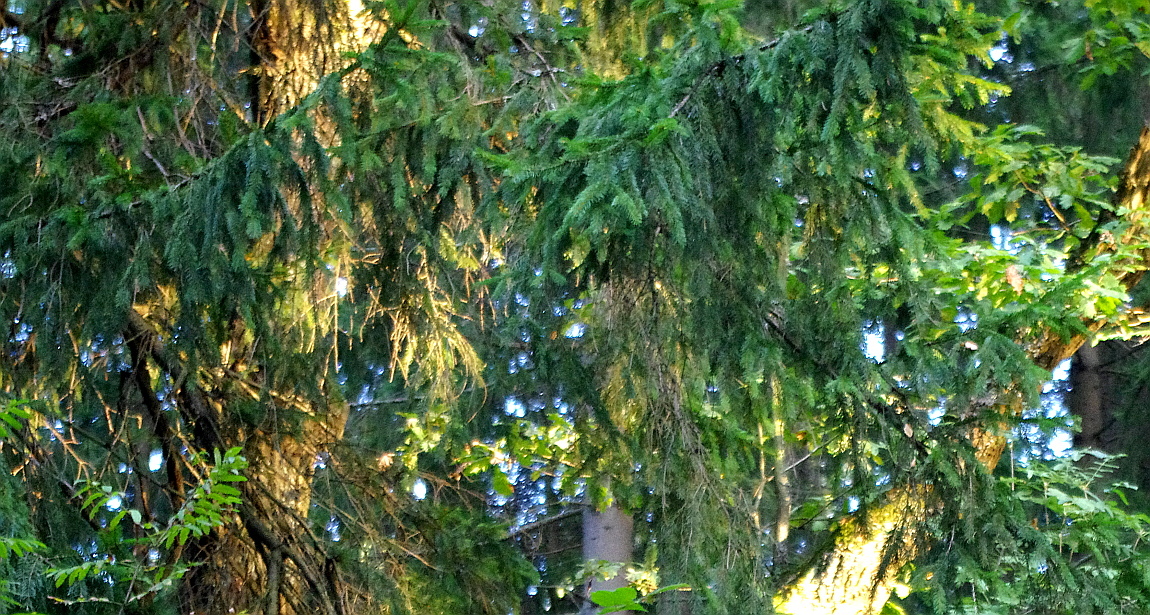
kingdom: Plantae
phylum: Tracheophyta
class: Pinopsida
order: Pinales
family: Pinaceae
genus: Picea
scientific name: Picea abies
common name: Norway spruce
